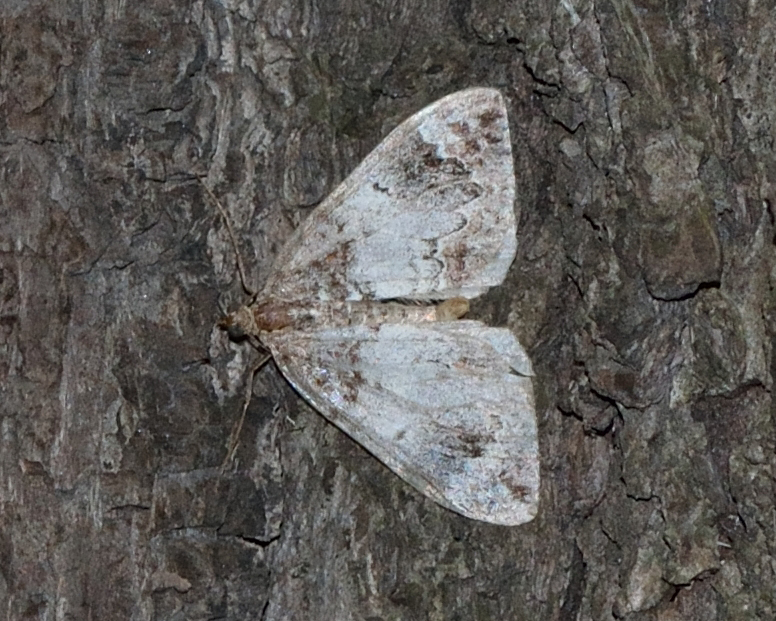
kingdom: Animalia
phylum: Arthropoda
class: Insecta
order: Lepidoptera
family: Geometridae
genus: Dysstroma
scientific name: Dysstroma truncata
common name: Common marbled carpet
